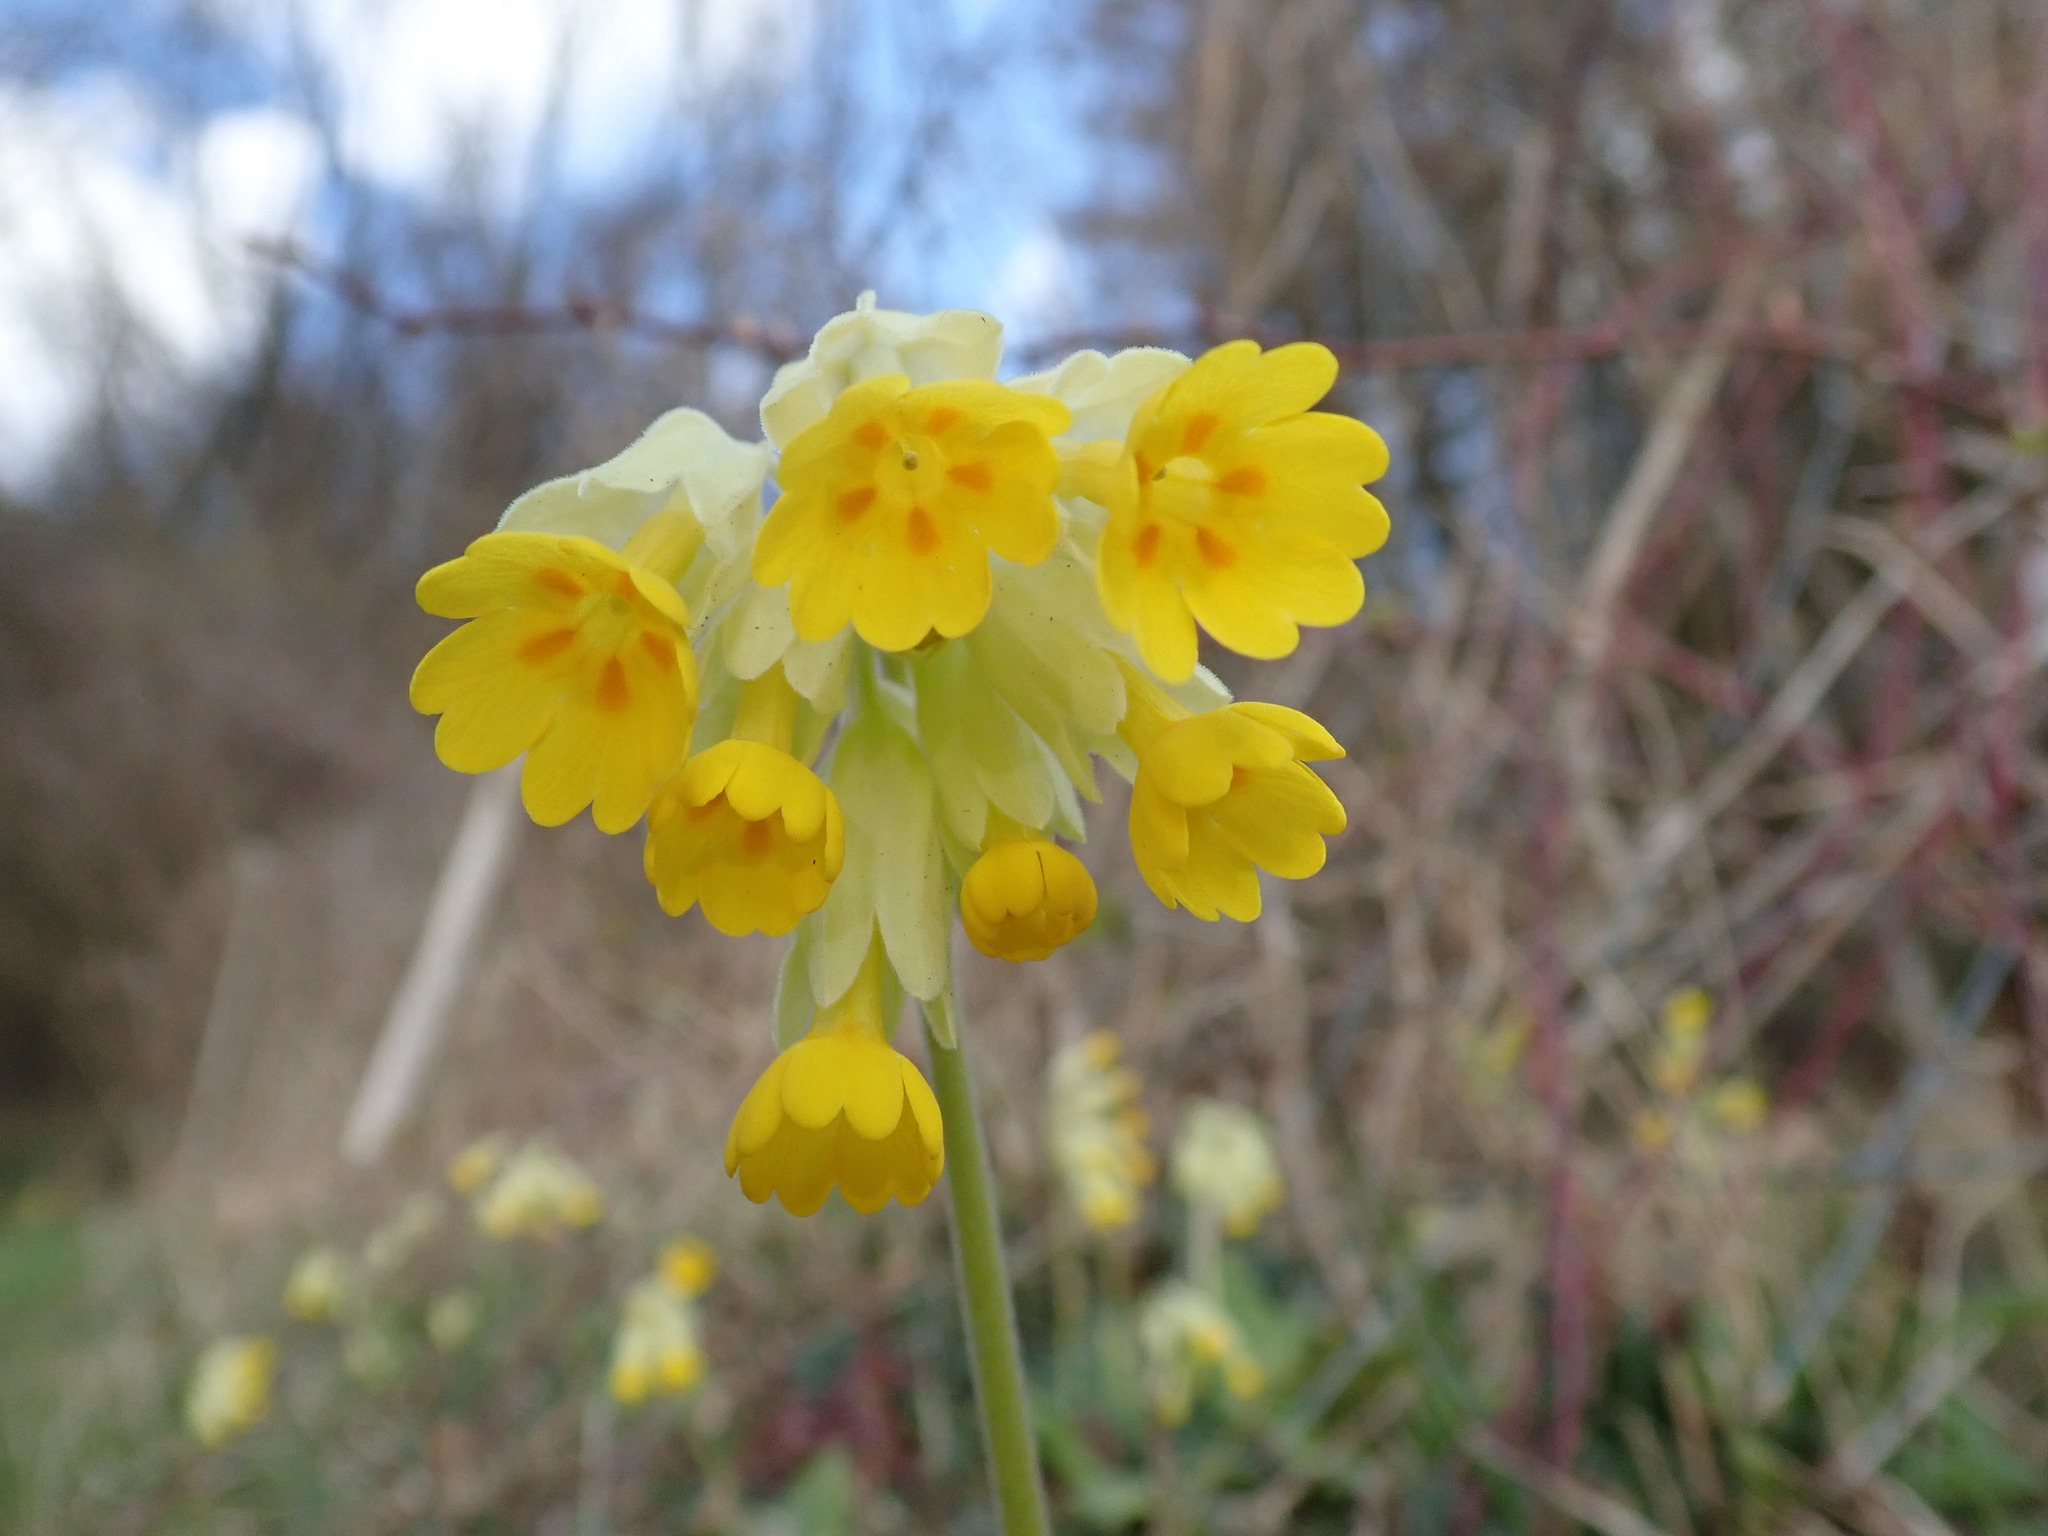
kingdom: Plantae
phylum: Tracheophyta
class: Magnoliopsida
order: Ericales
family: Primulaceae
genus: Primula
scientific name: Primula veris
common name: Cowslip
